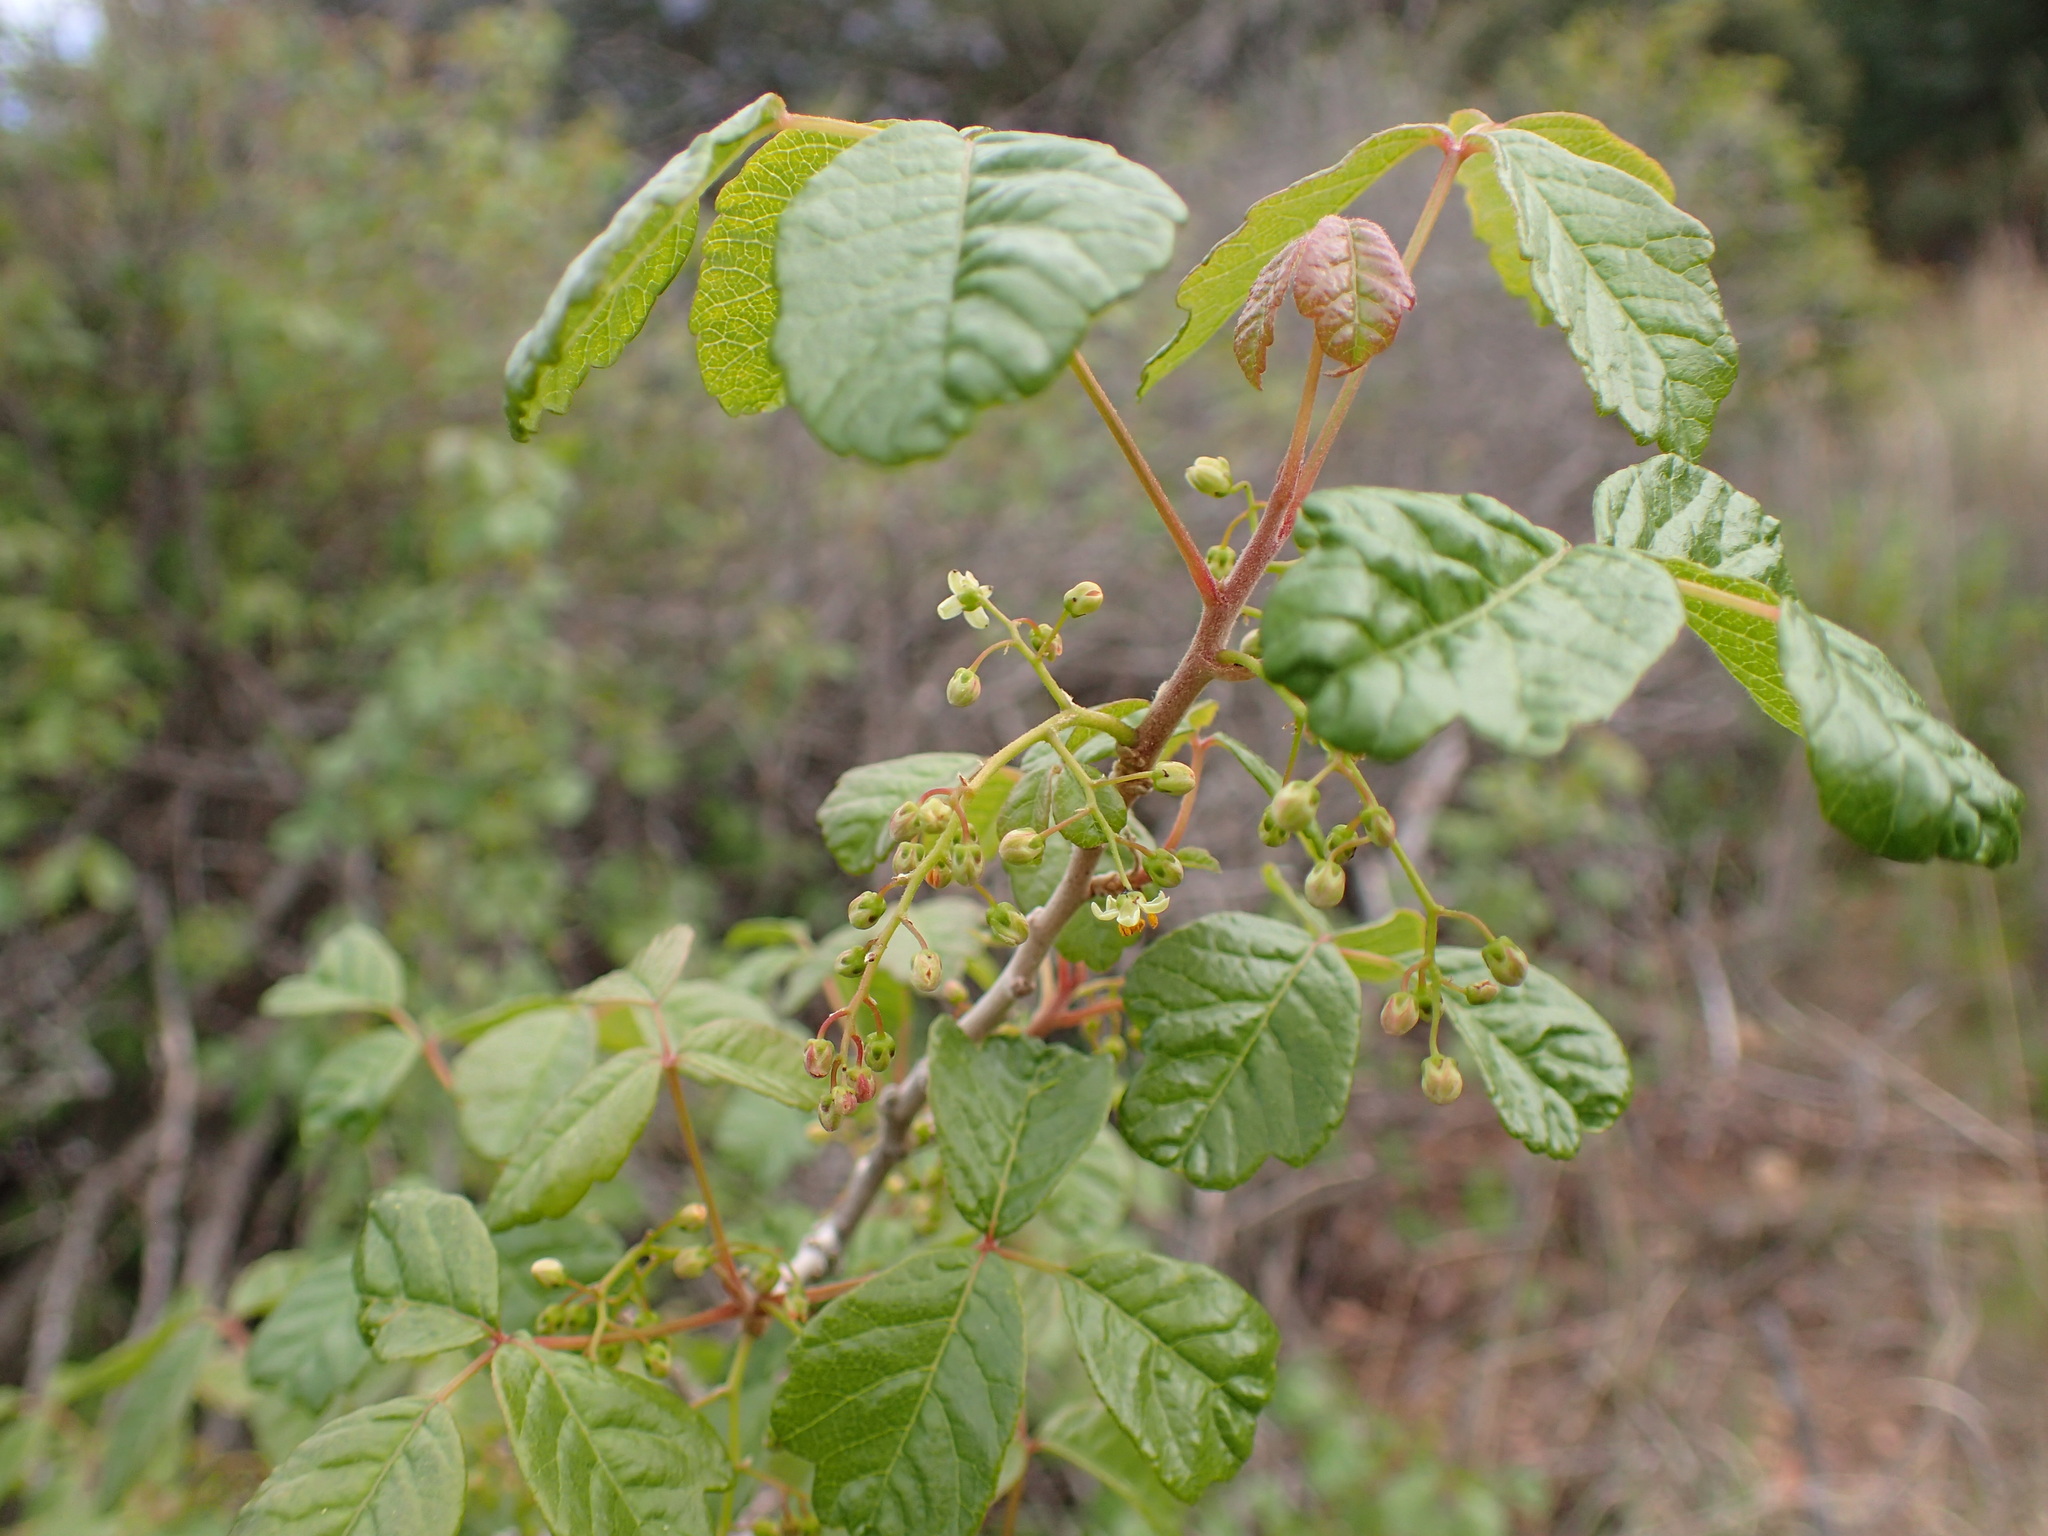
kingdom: Plantae
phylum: Tracheophyta
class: Magnoliopsida
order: Sapindales
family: Anacardiaceae
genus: Toxicodendron
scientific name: Toxicodendron diversilobum
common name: Pacific poison-oak
